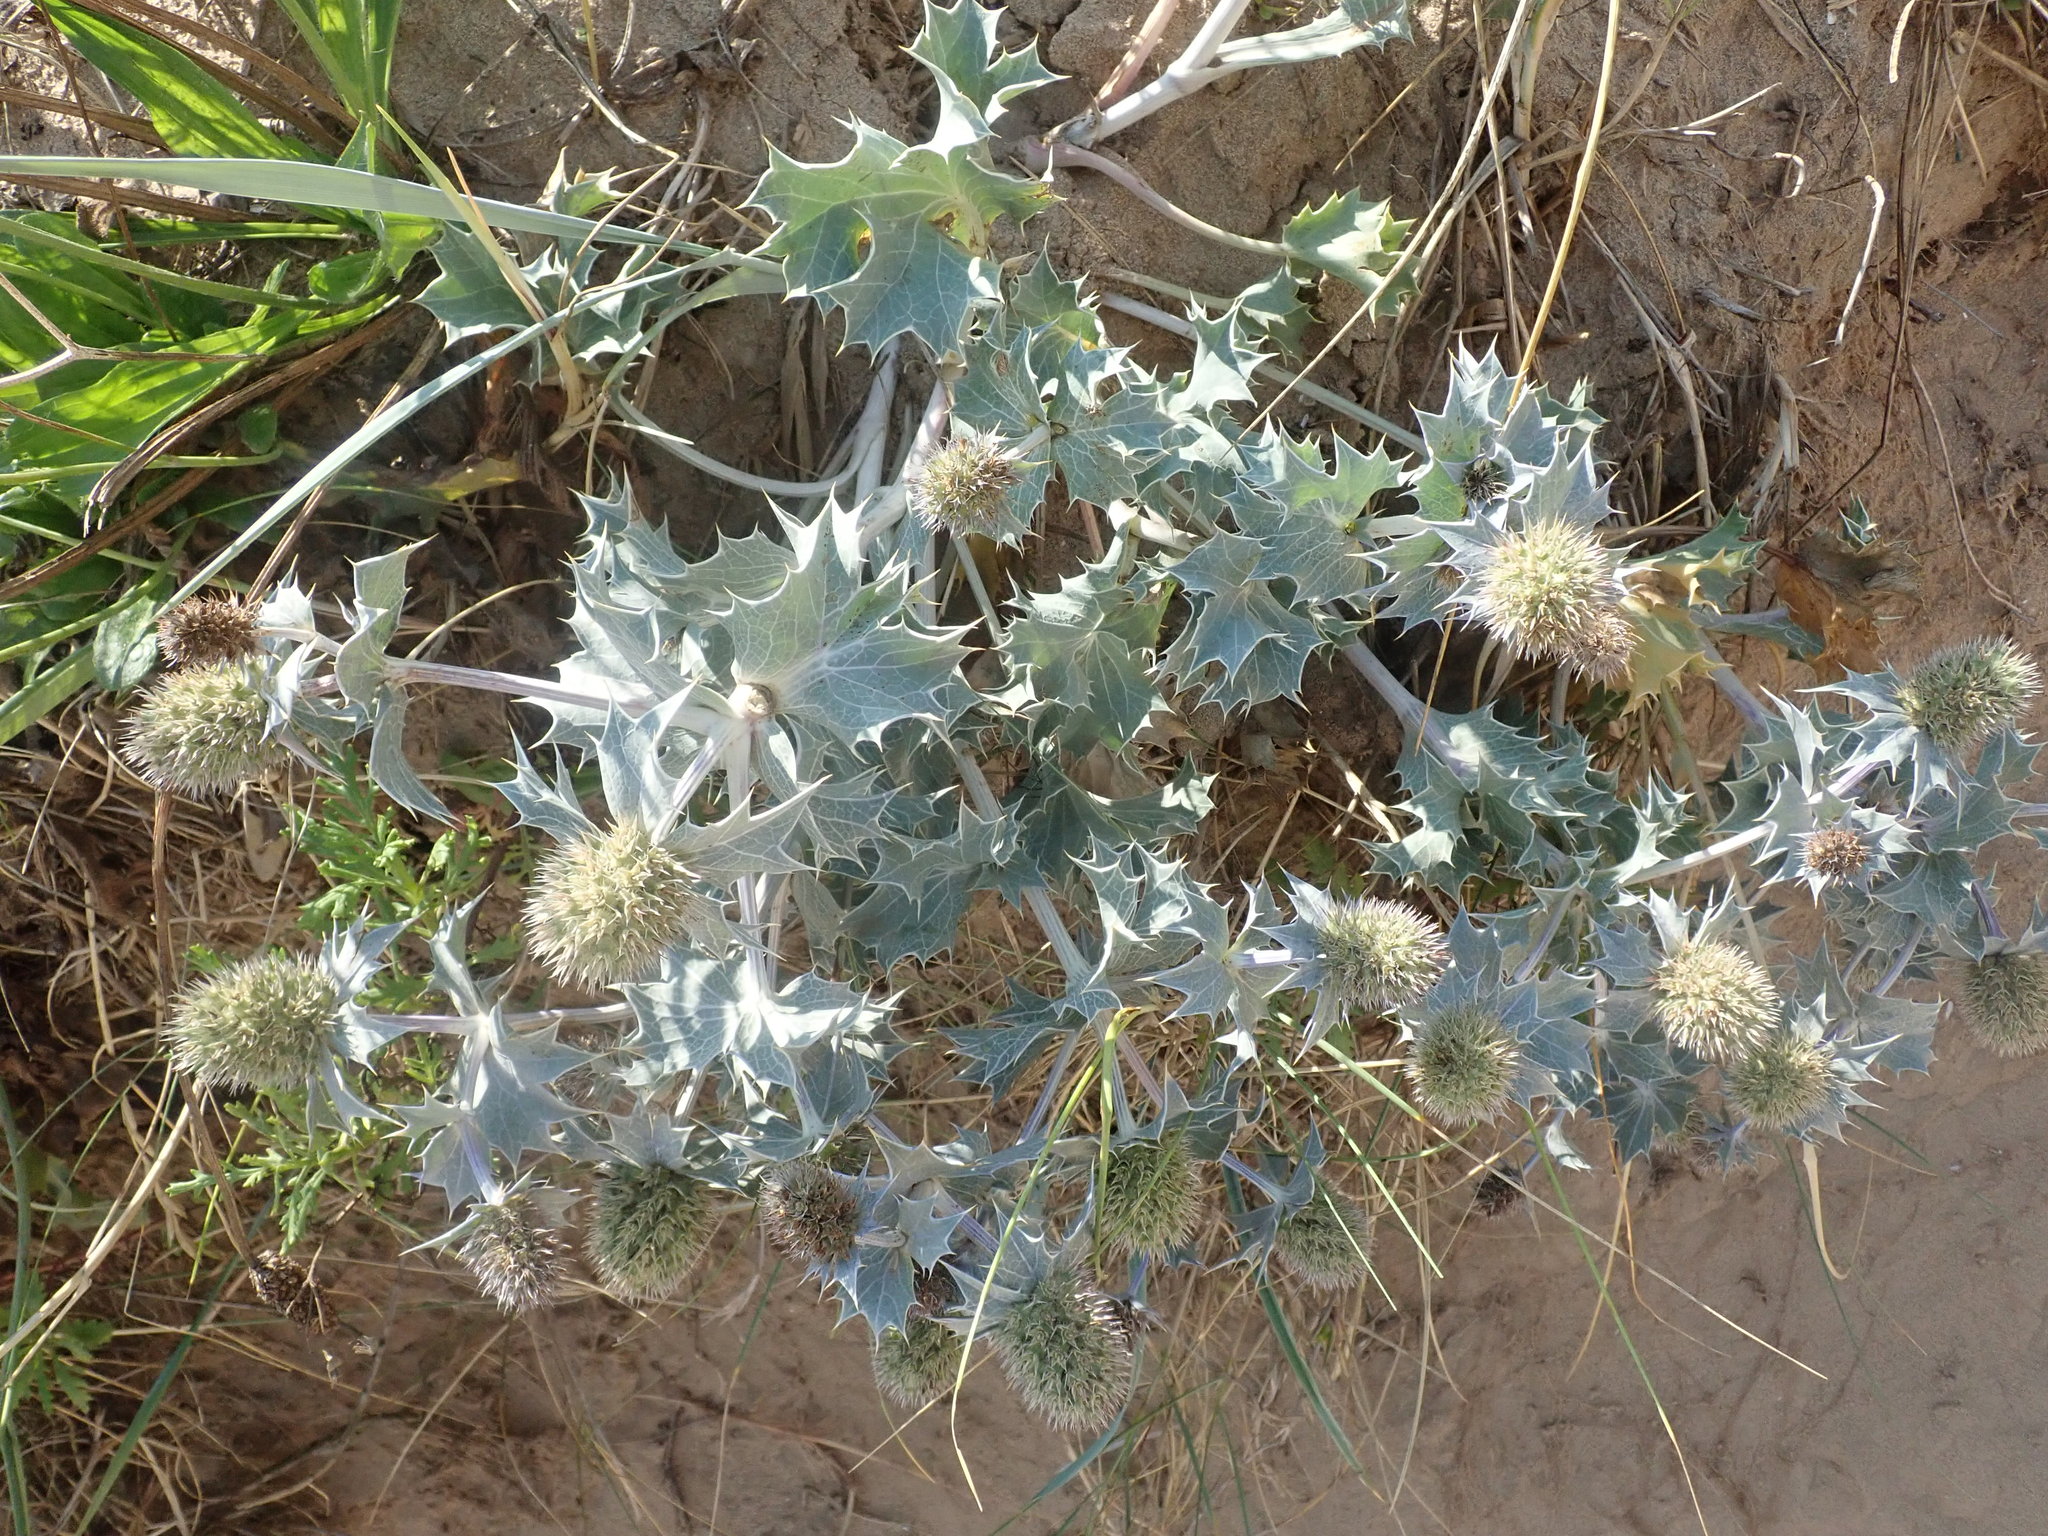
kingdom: Plantae
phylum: Tracheophyta
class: Magnoliopsida
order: Apiales
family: Apiaceae
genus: Eryngium
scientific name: Eryngium maritimum
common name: Sea-holly
